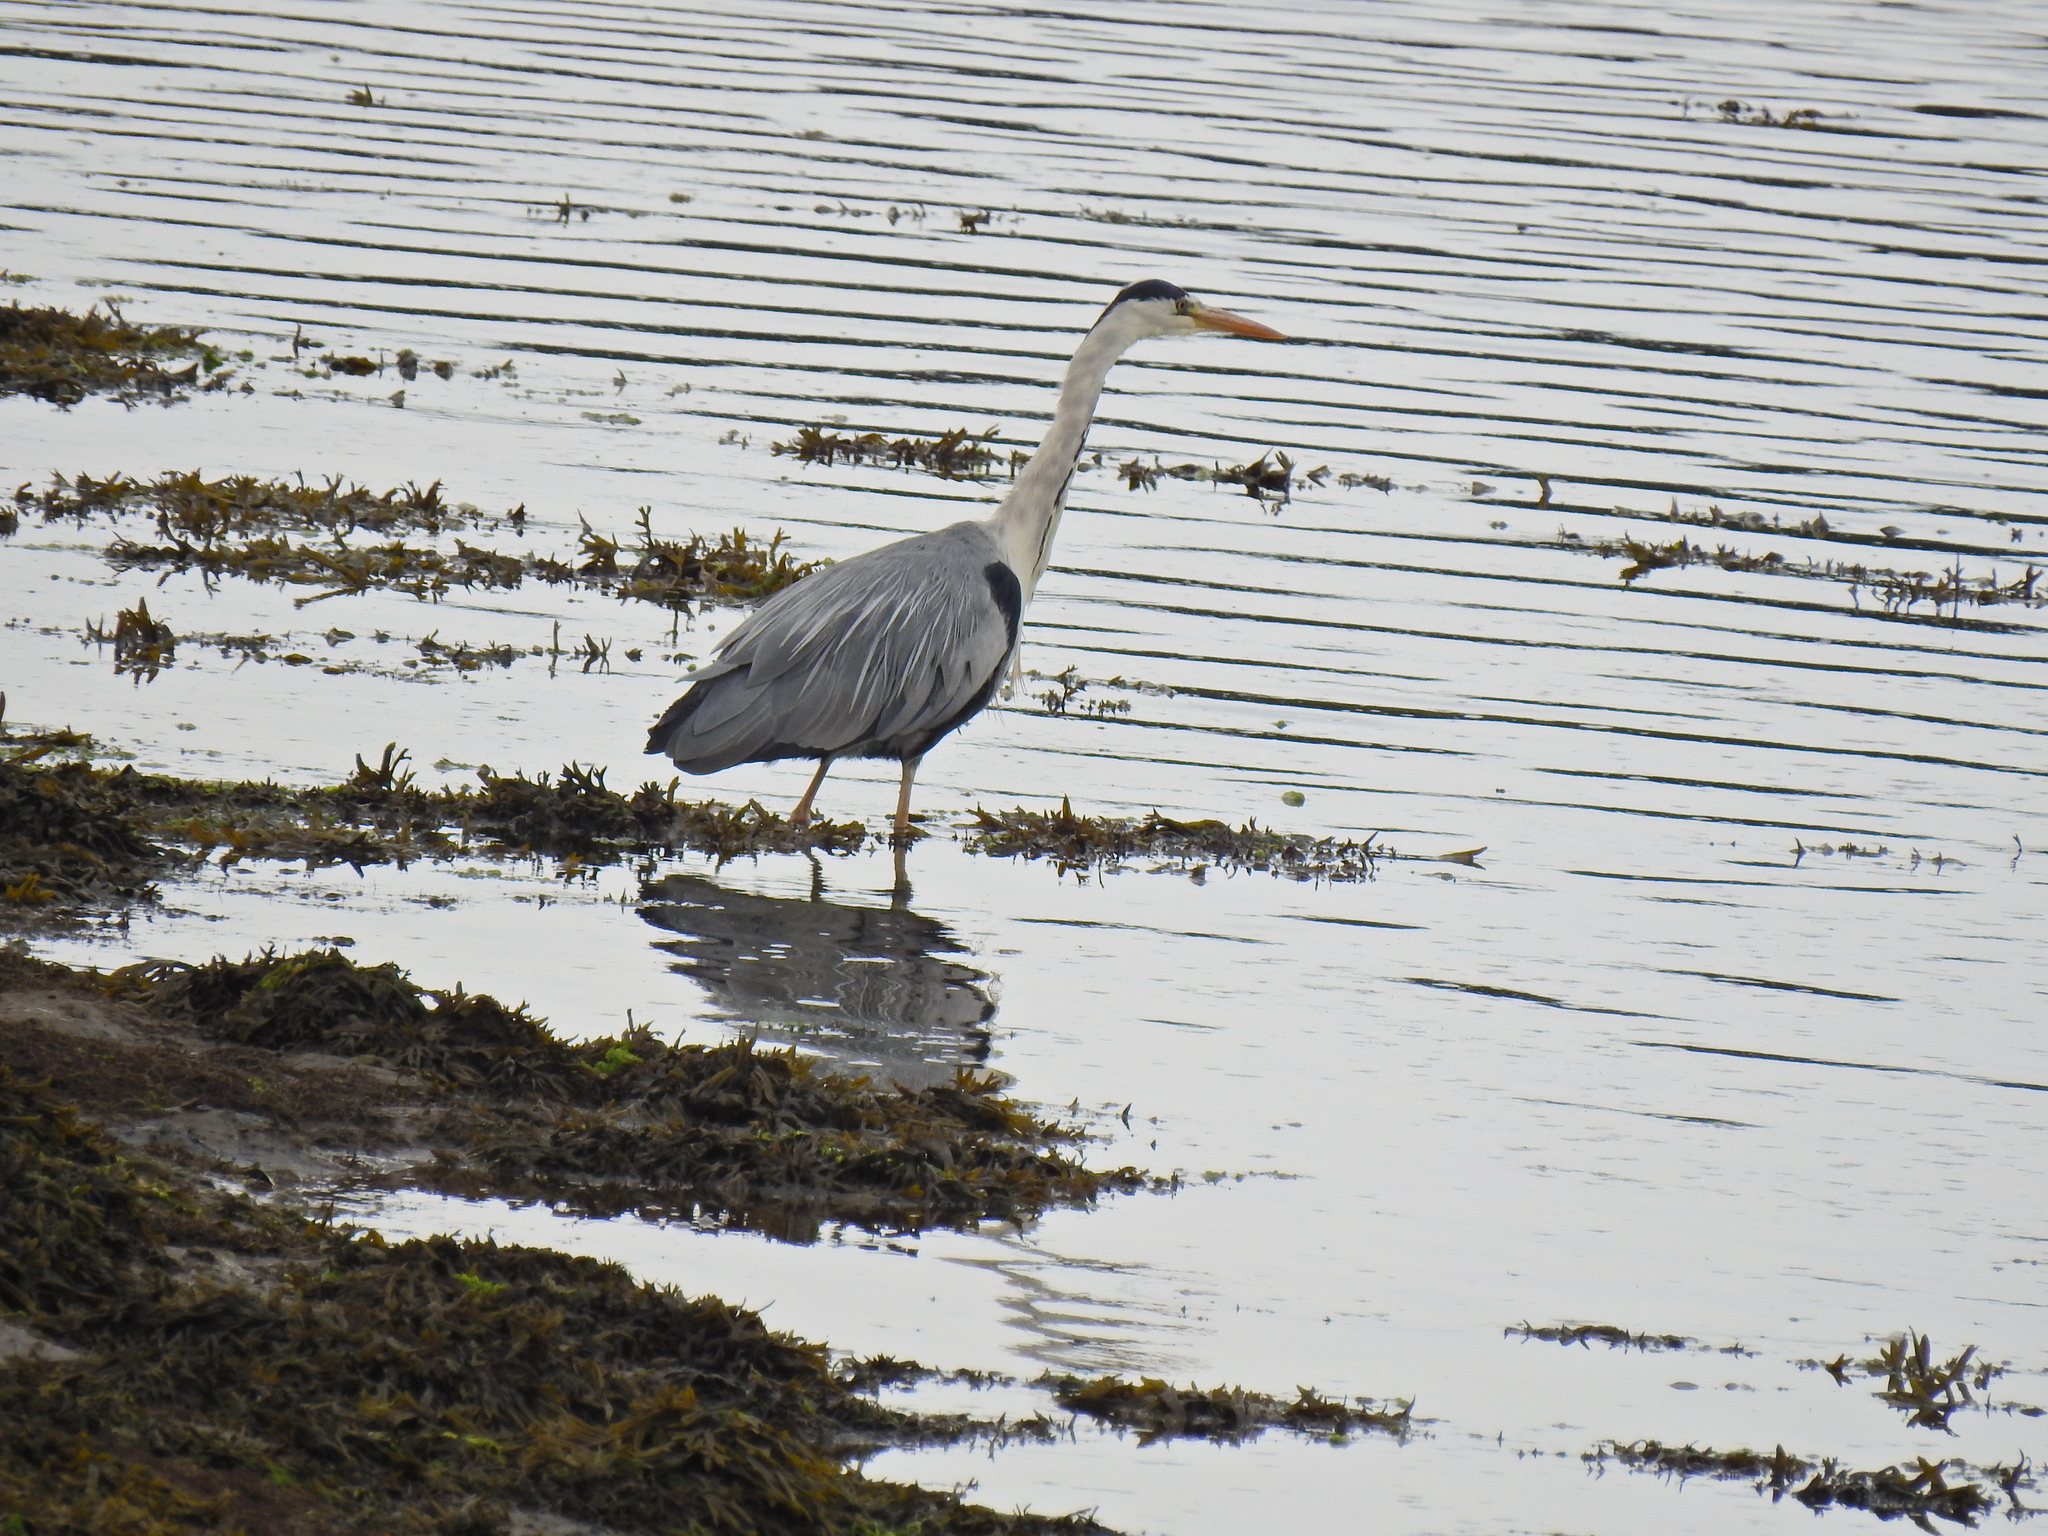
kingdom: Animalia
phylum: Chordata
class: Aves
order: Pelecaniformes
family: Ardeidae
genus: Ardea
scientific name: Ardea cinerea
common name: Grey heron
